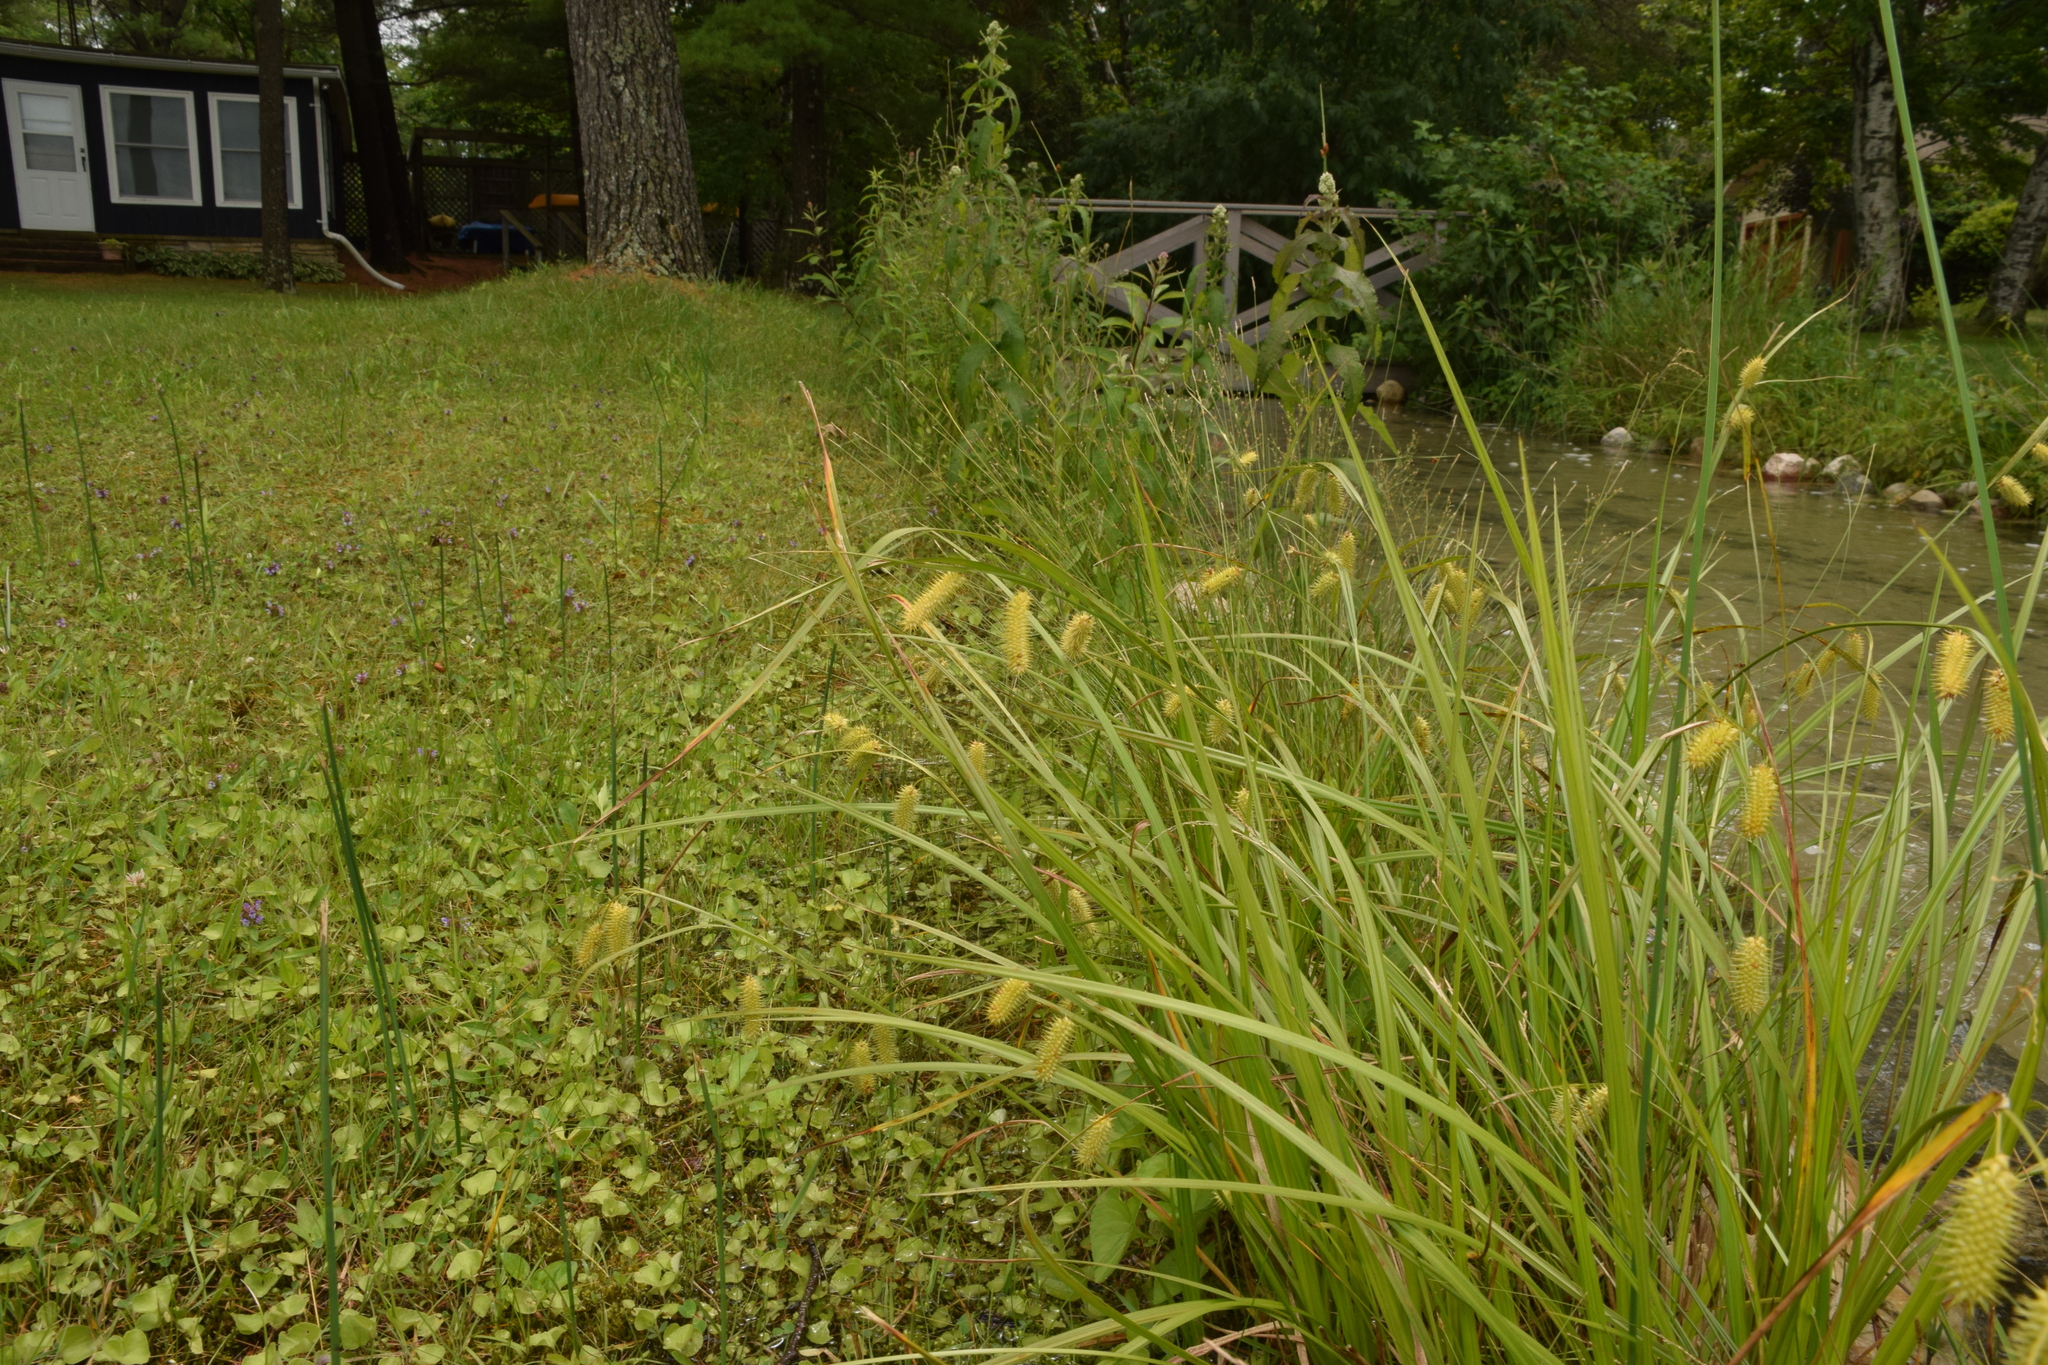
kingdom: Plantae
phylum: Tracheophyta
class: Liliopsida
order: Poales
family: Cyperaceae
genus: Carex
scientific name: Carex hystericina
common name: Bottlebrush sedge
